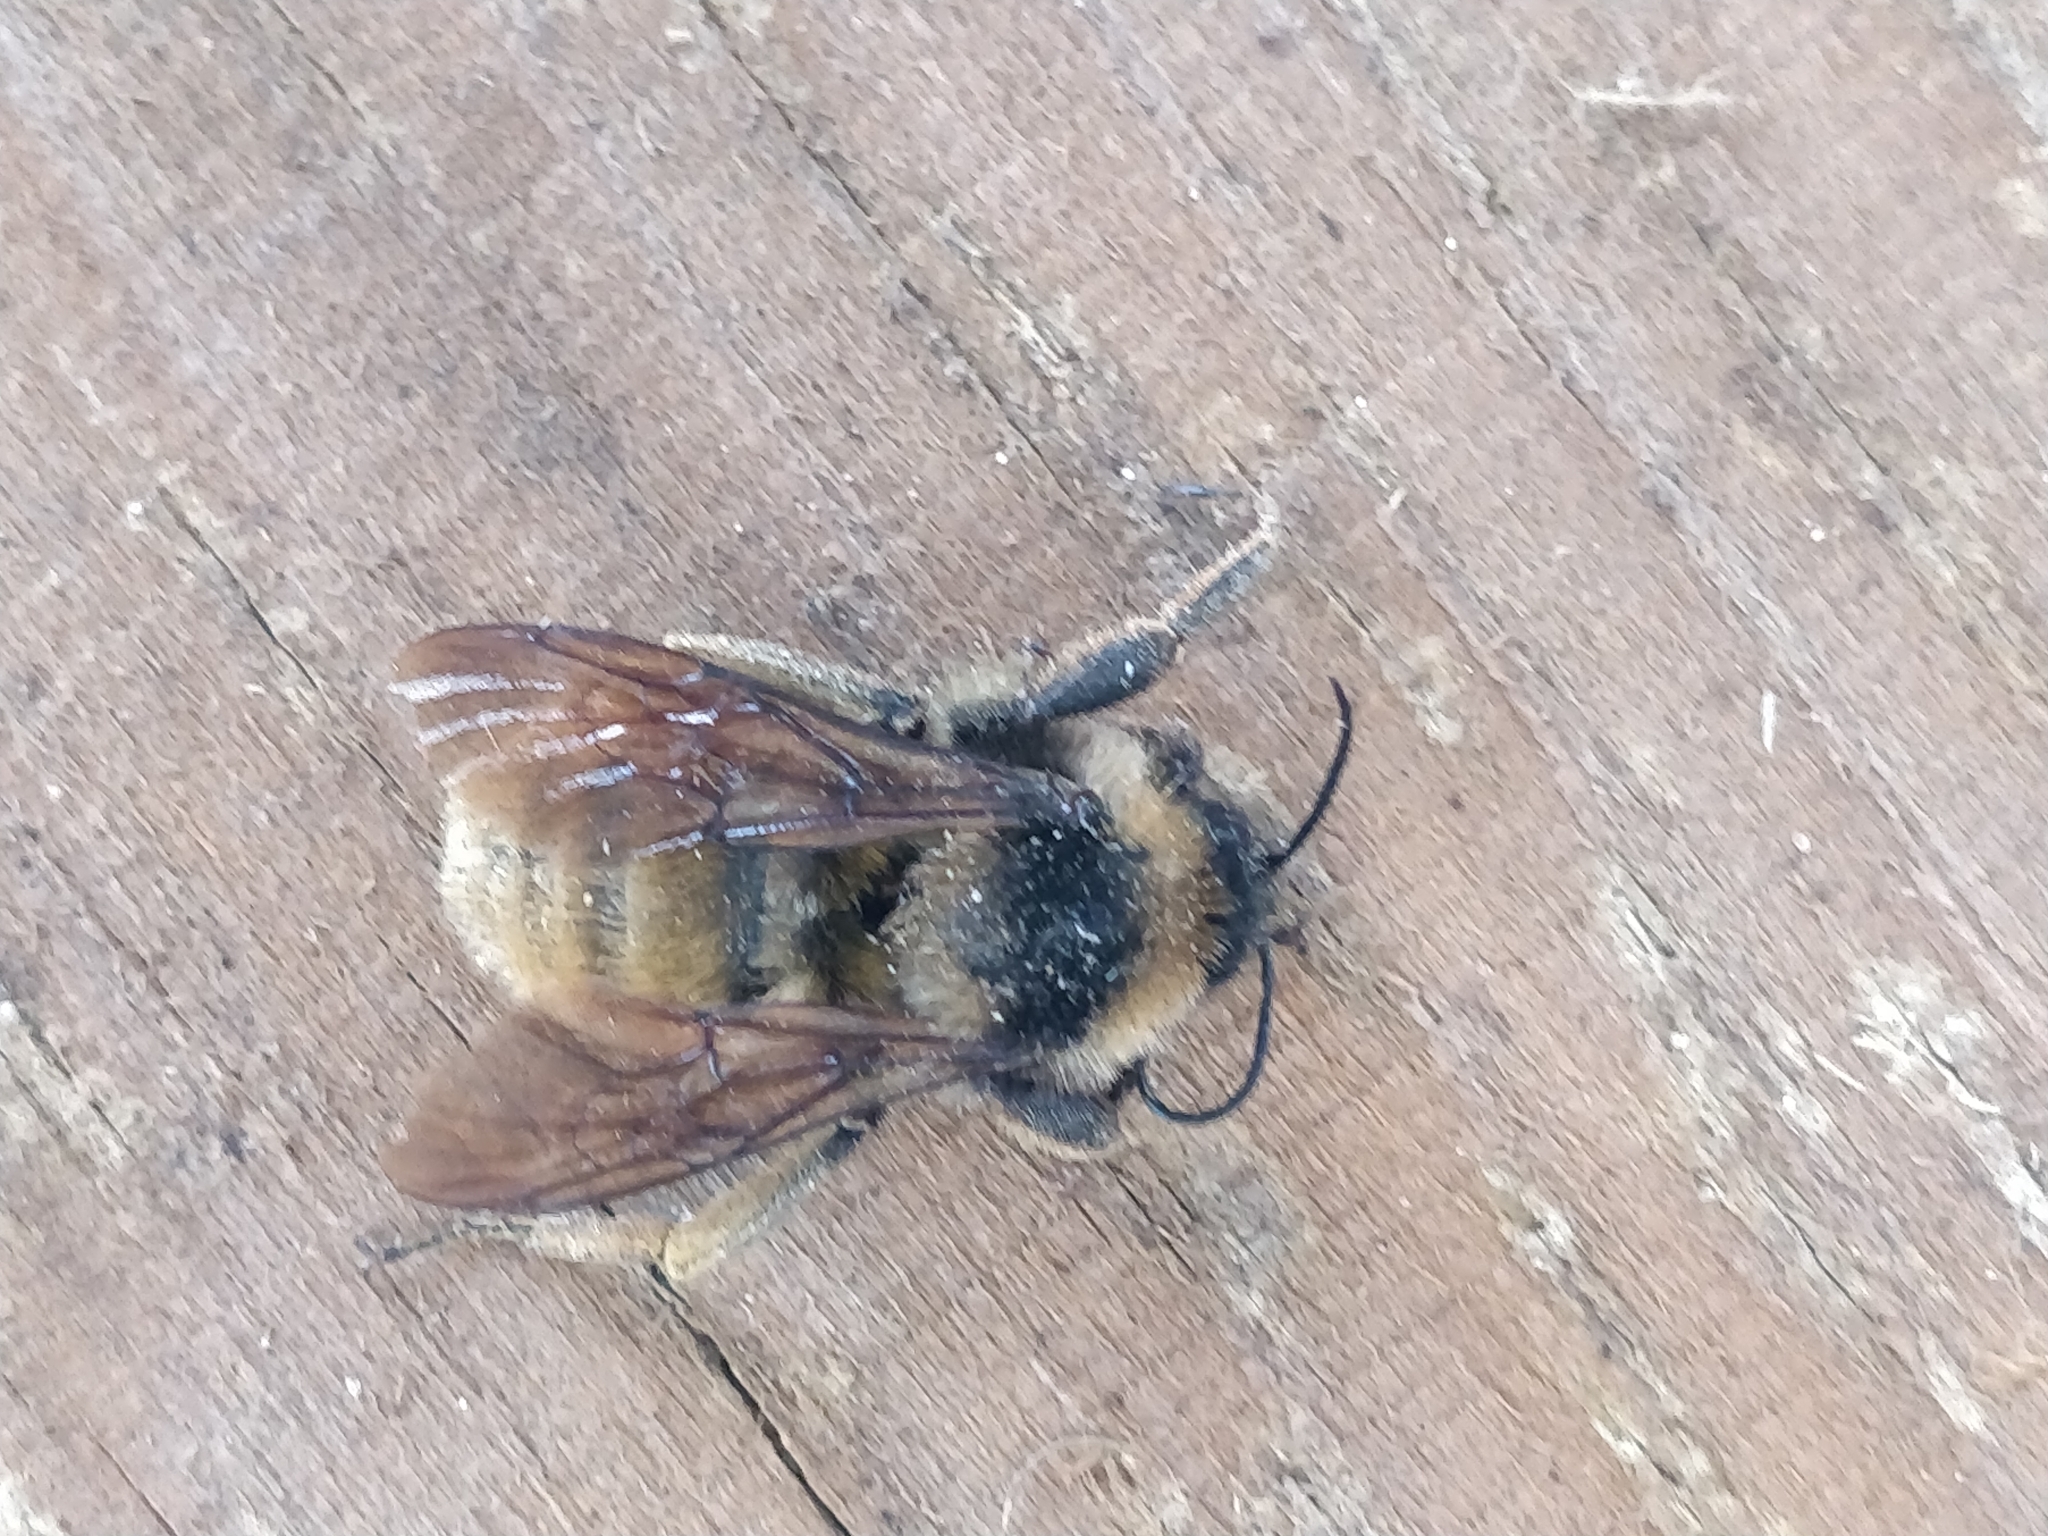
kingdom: Animalia
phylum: Arthropoda
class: Insecta
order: Hymenoptera
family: Apidae
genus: Bombus
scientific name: Bombus pensylvanicus
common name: Bumble bee
